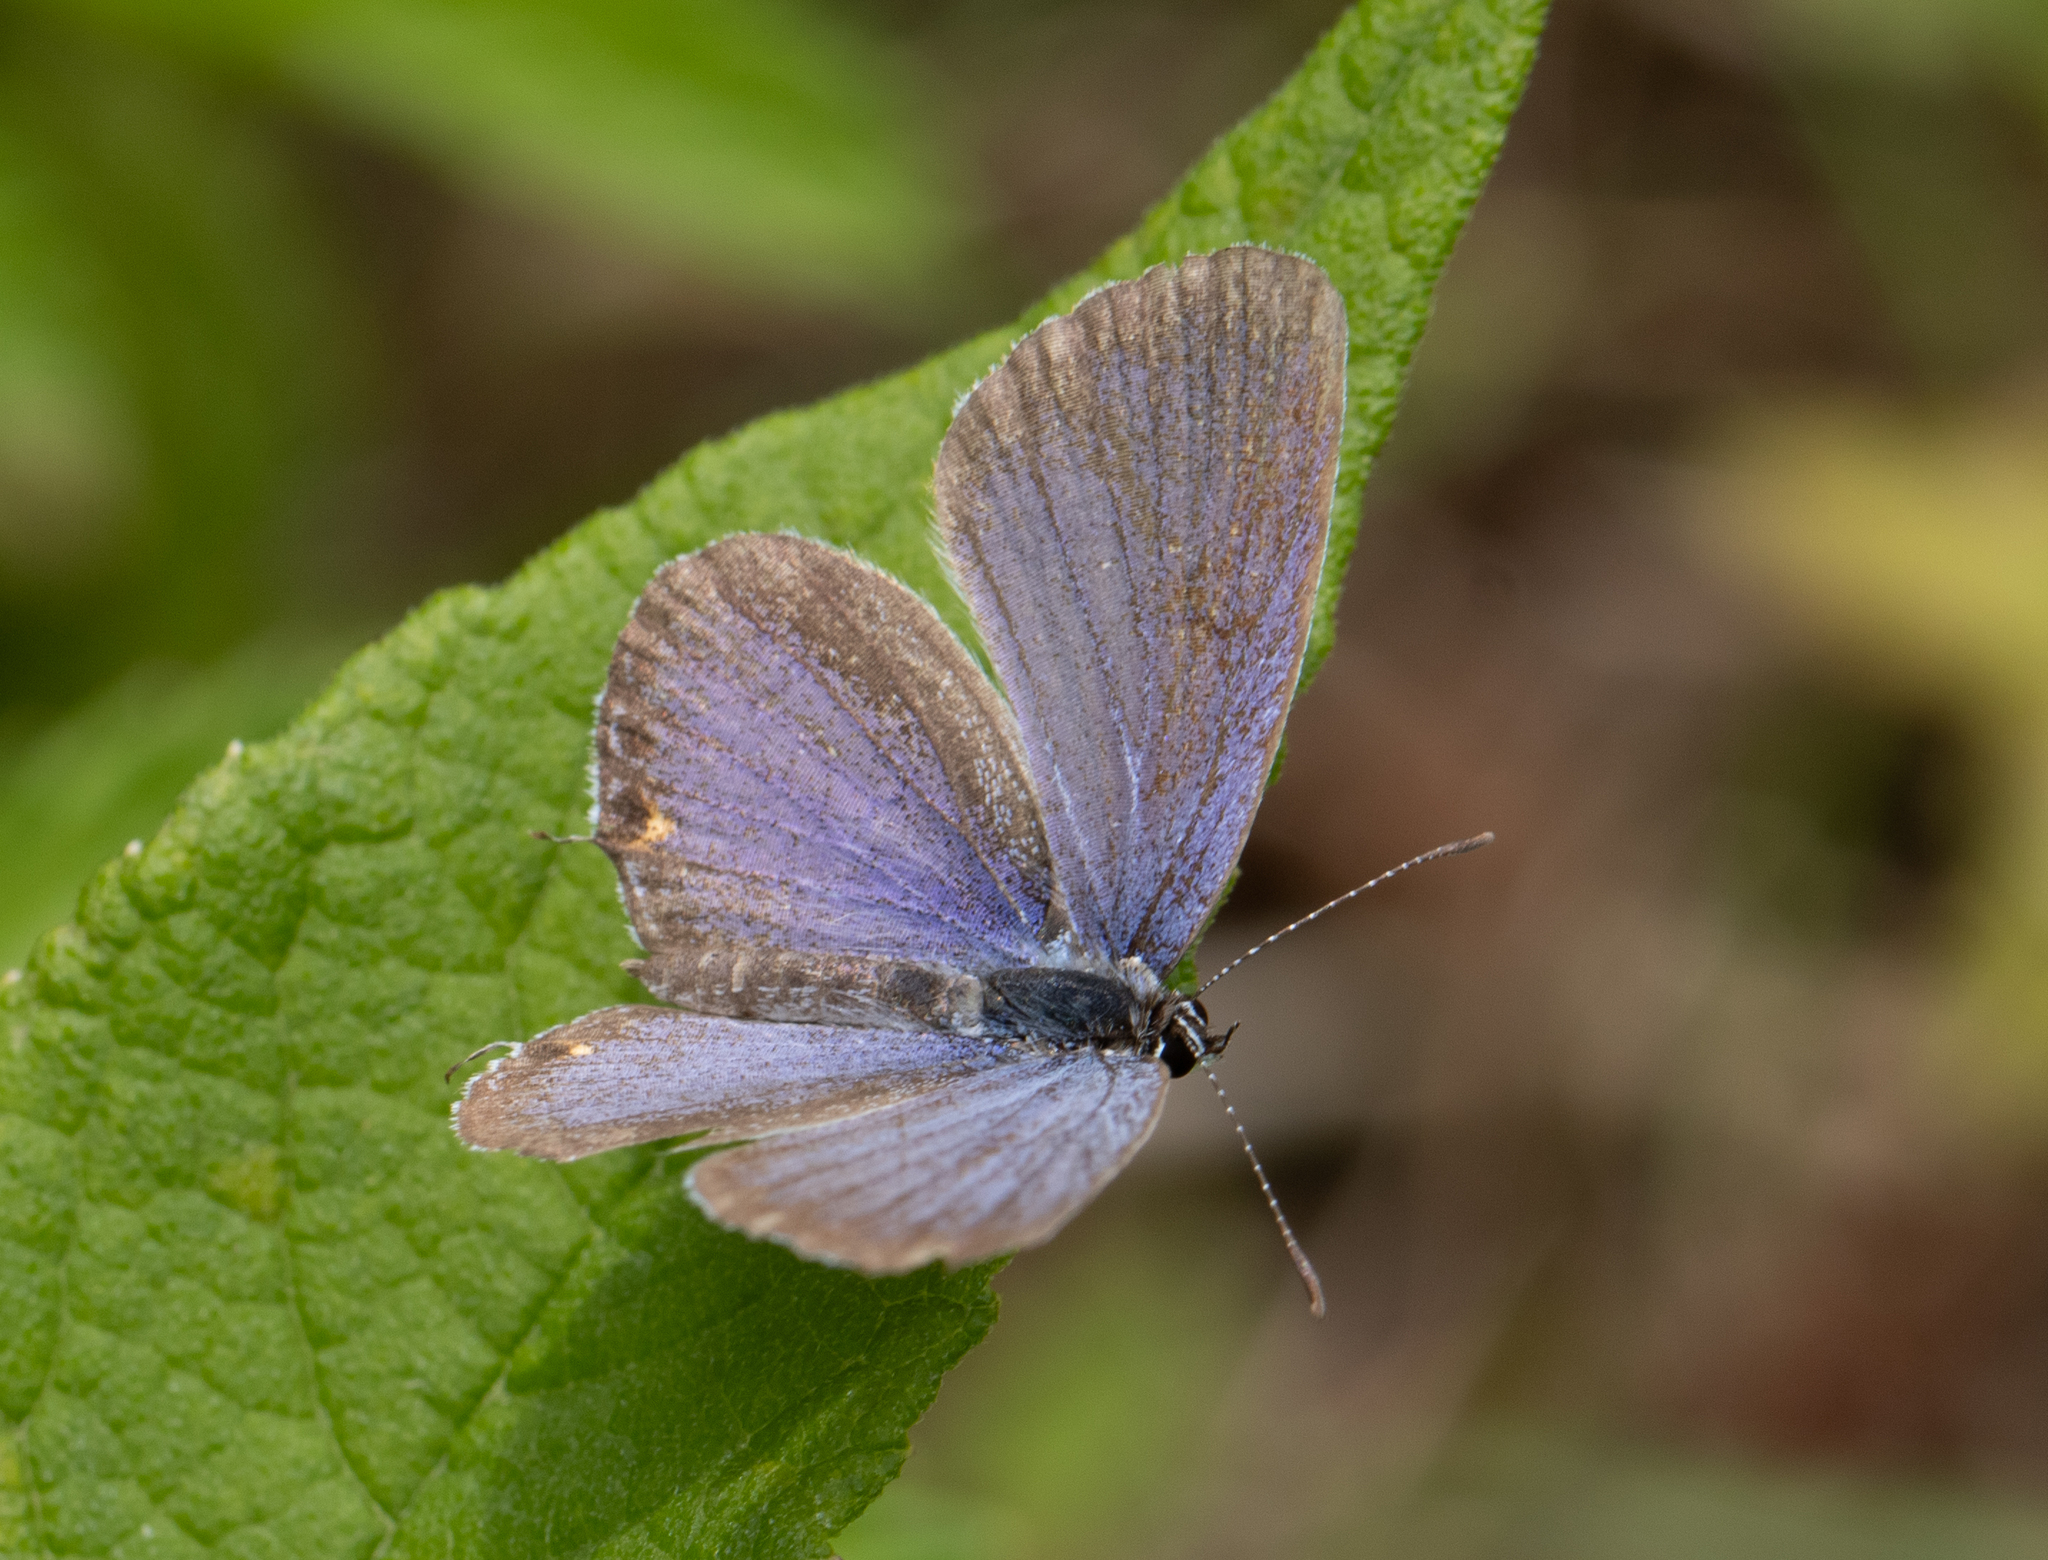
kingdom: Animalia
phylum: Arthropoda
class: Insecta
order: Lepidoptera
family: Lycaenidae
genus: Elkalyce
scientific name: Elkalyce comyntas
